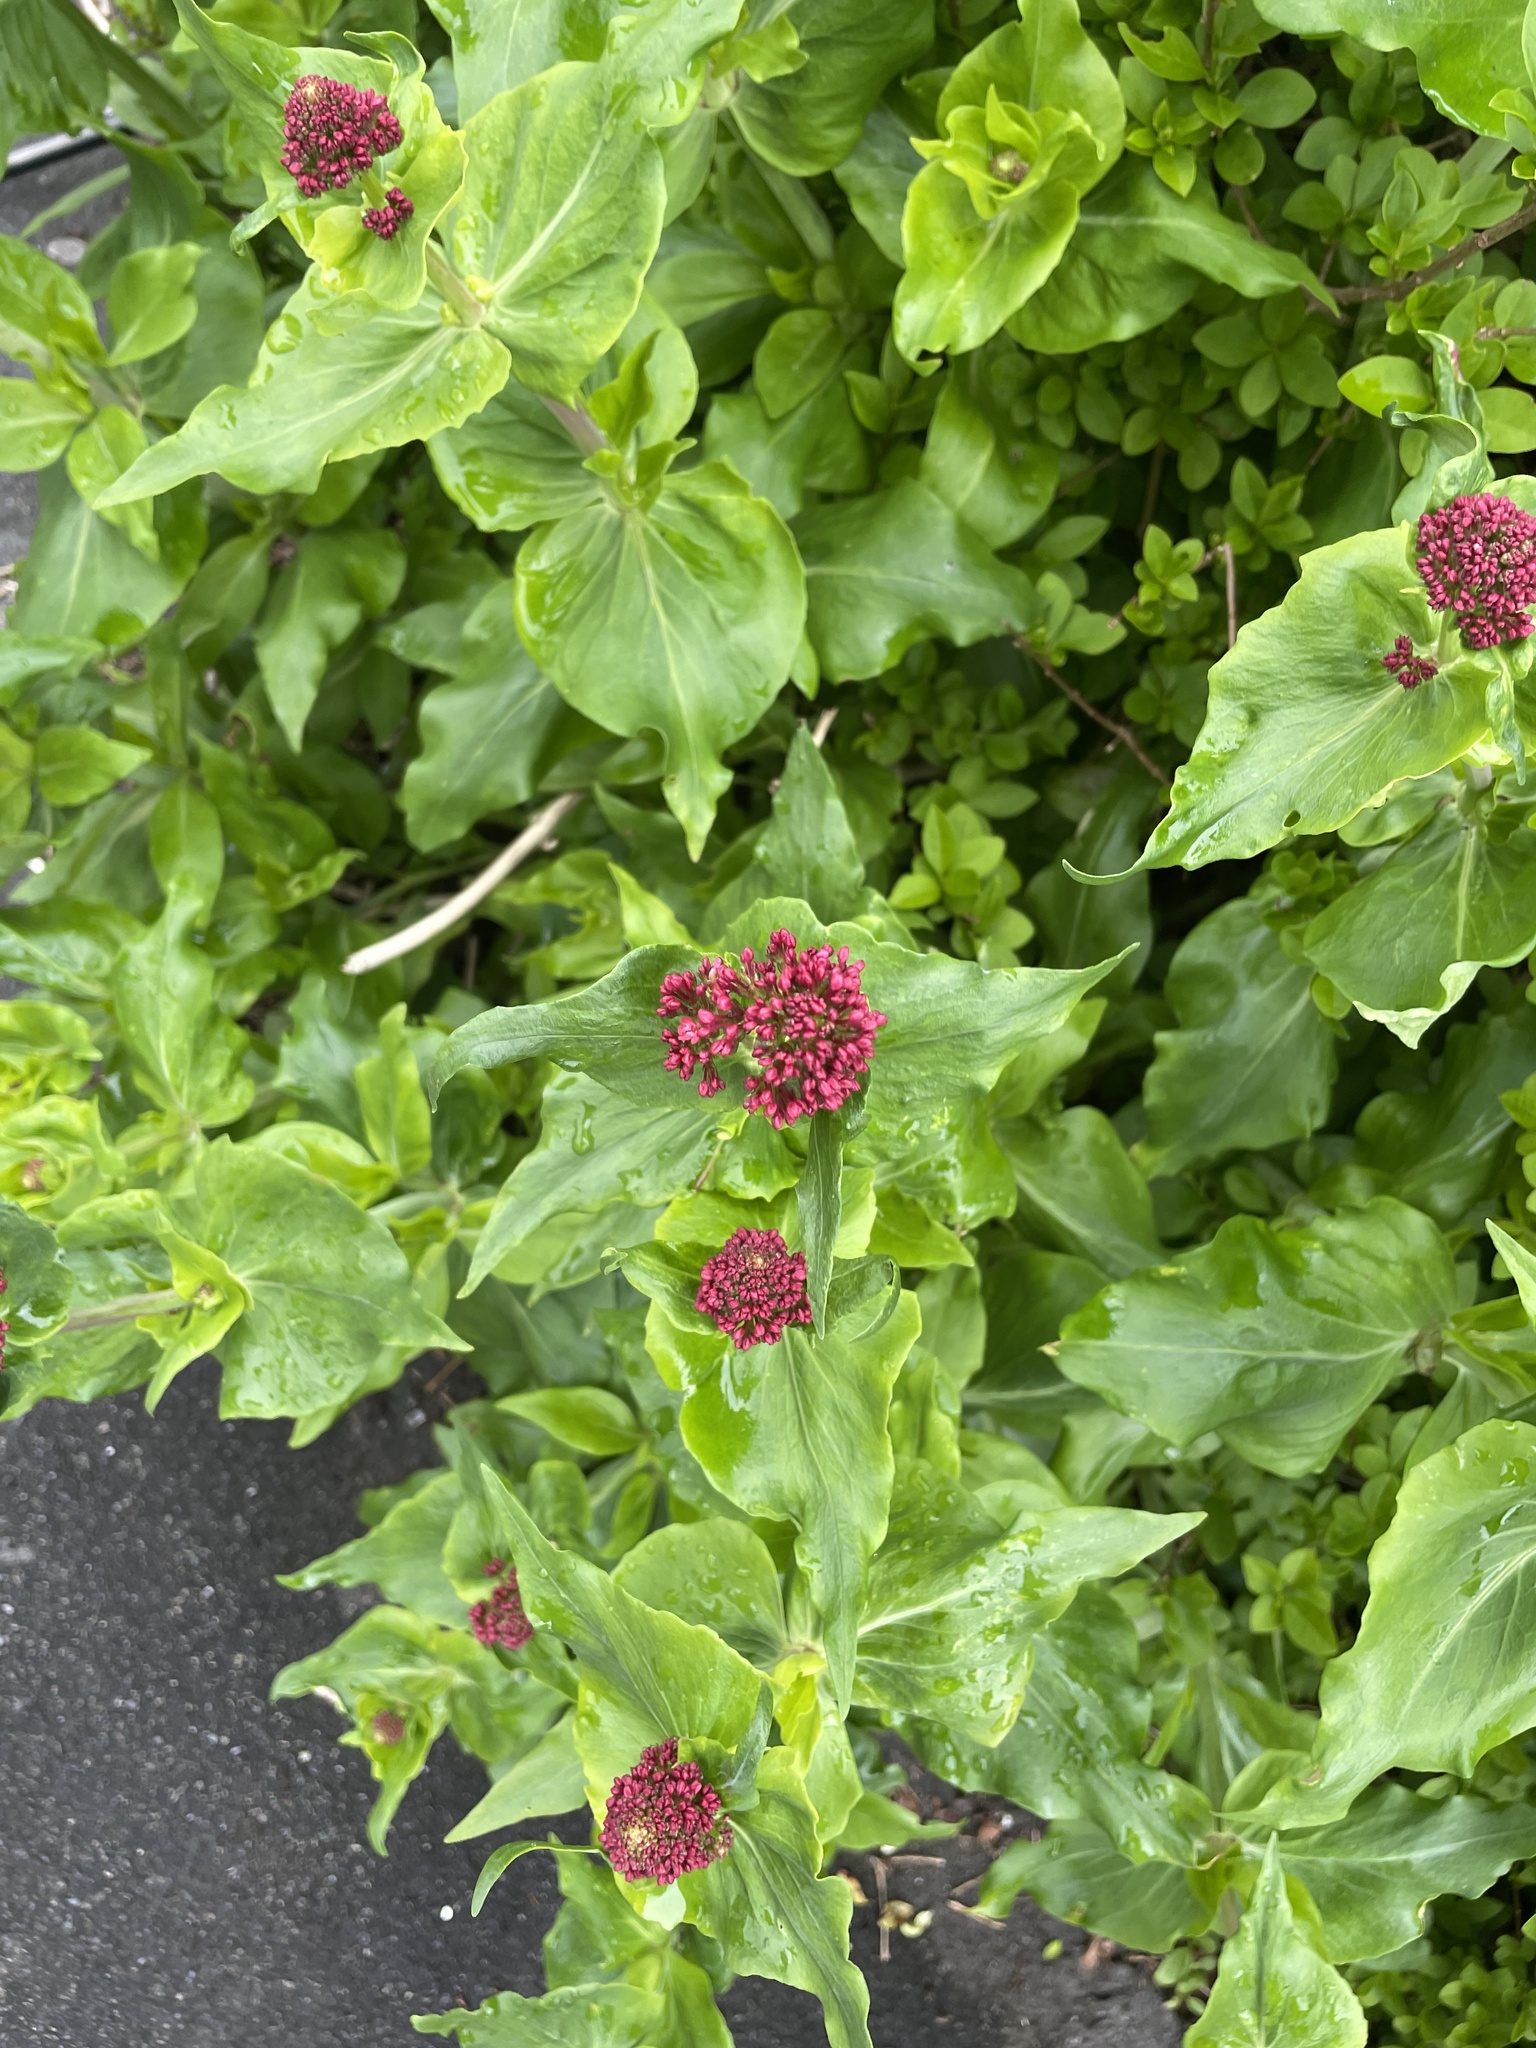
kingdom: Plantae
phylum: Tracheophyta
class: Magnoliopsida
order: Dipsacales
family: Caprifoliaceae
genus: Centranthus
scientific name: Centranthus ruber
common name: Red valerian
